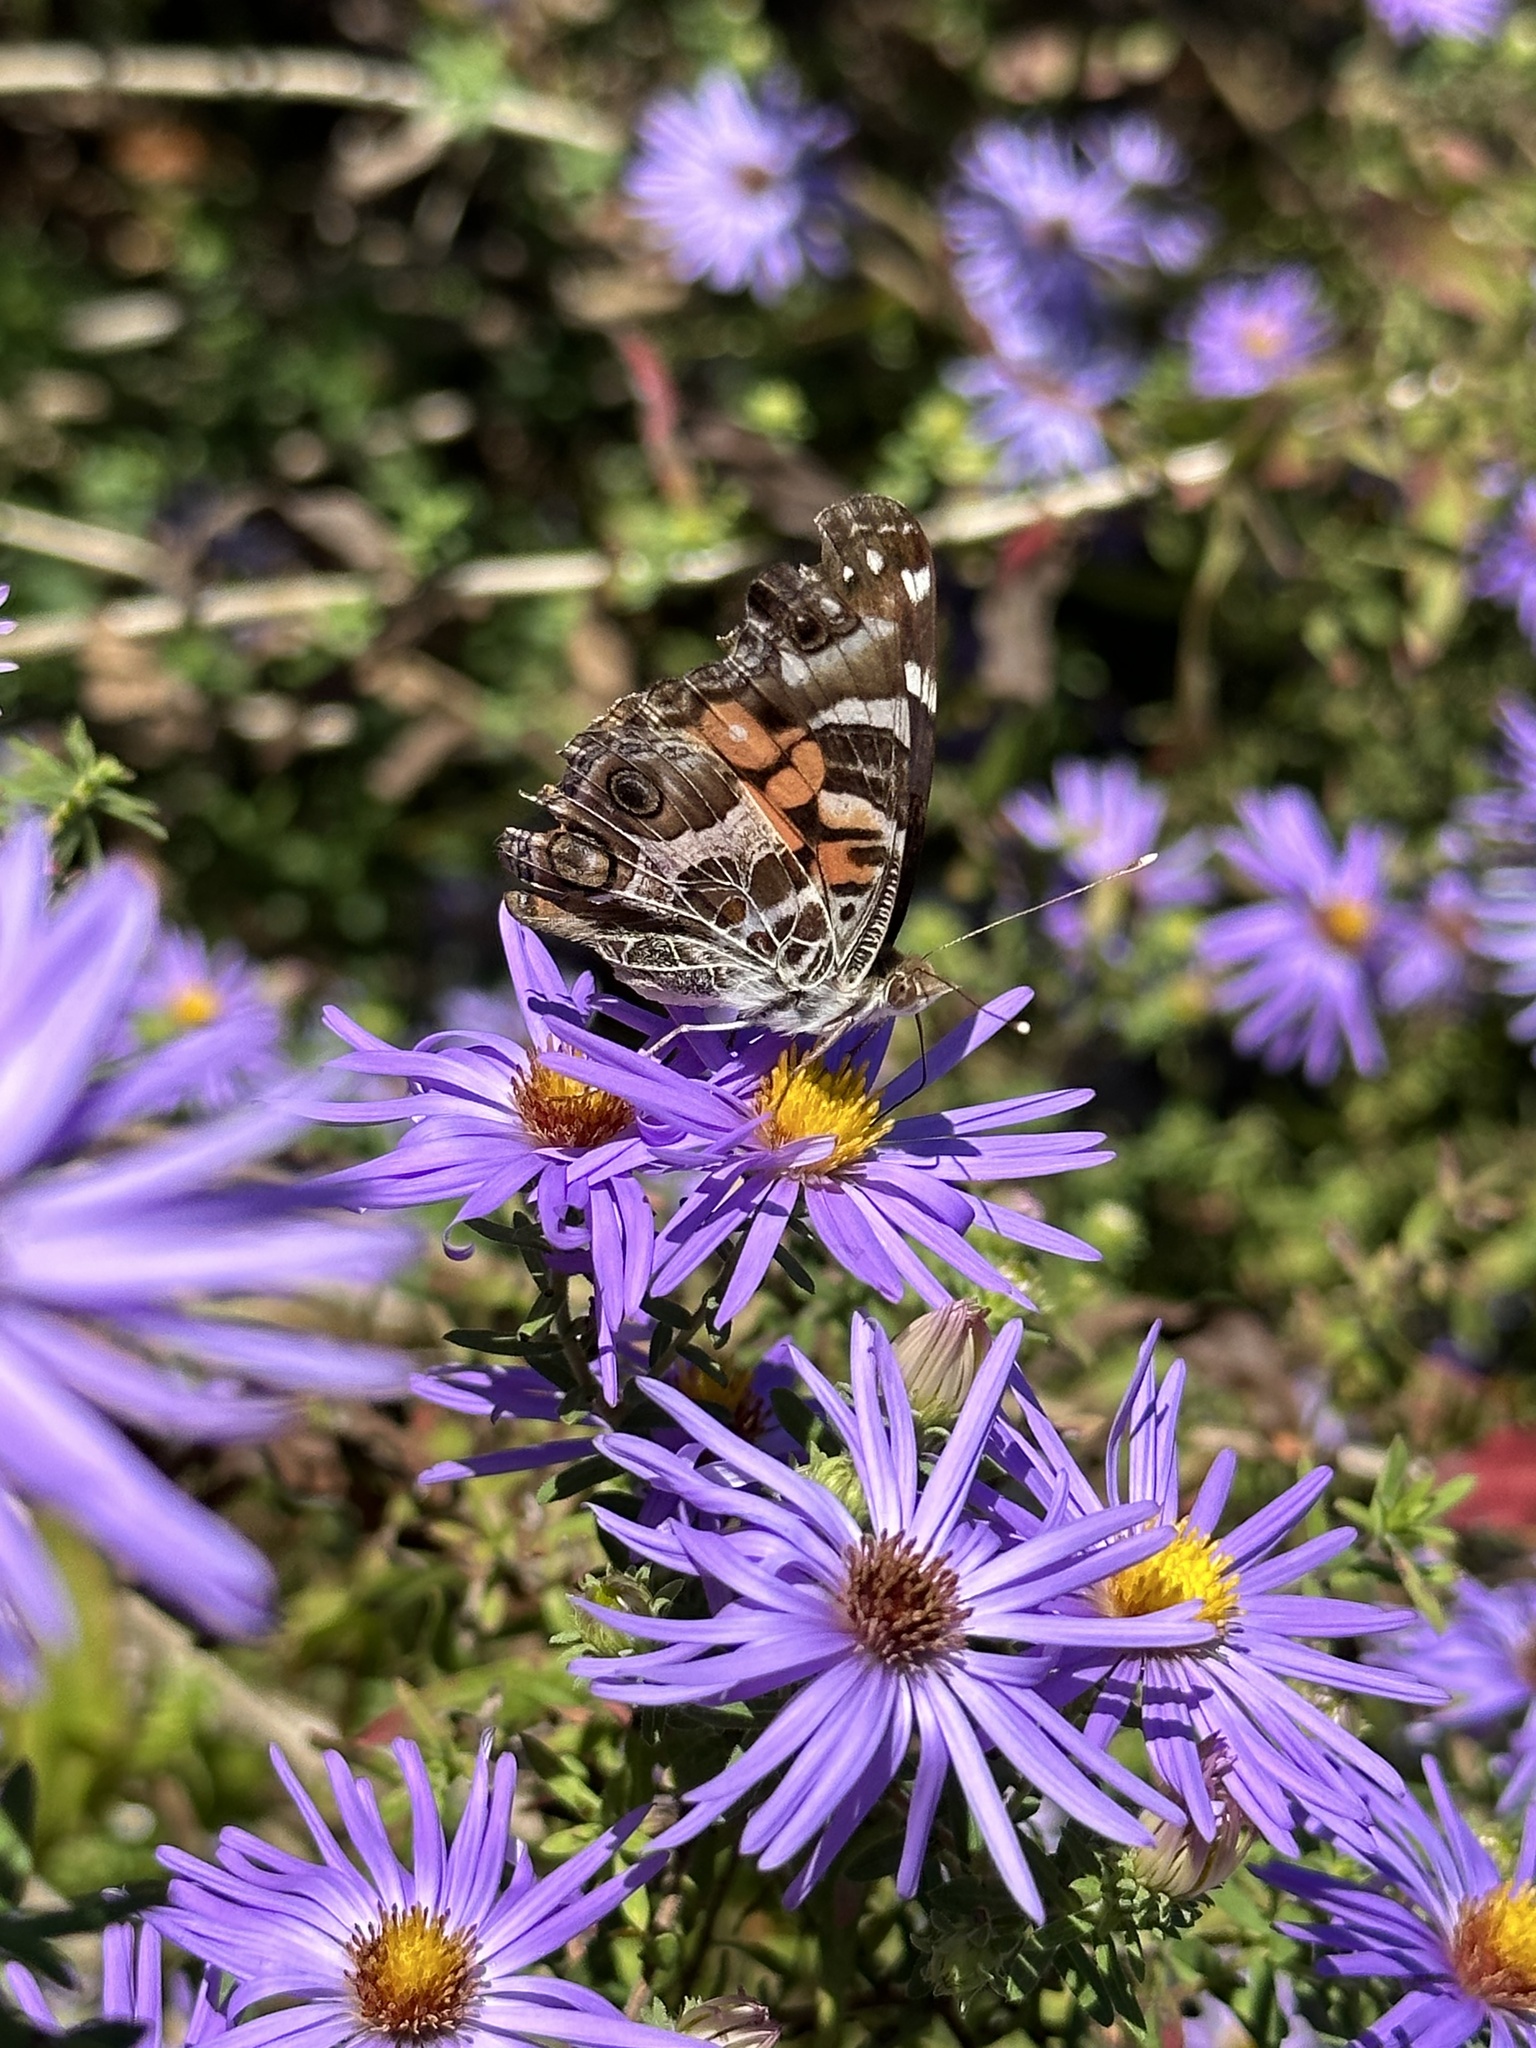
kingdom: Animalia
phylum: Arthropoda
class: Insecta
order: Lepidoptera
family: Nymphalidae
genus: Vanessa
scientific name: Vanessa virginiensis
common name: American lady
